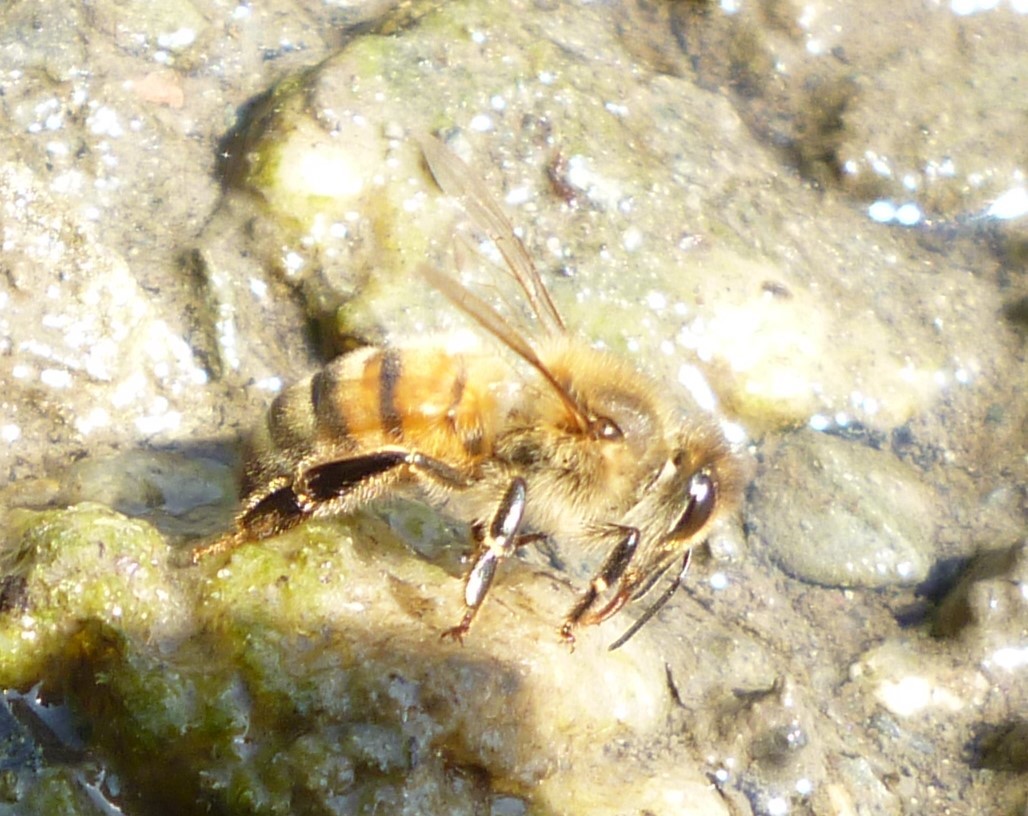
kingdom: Animalia
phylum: Arthropoda
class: Insecta
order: Hymenoptera
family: Apidae
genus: Apis
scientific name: Apis mellifera
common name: Honey bee
